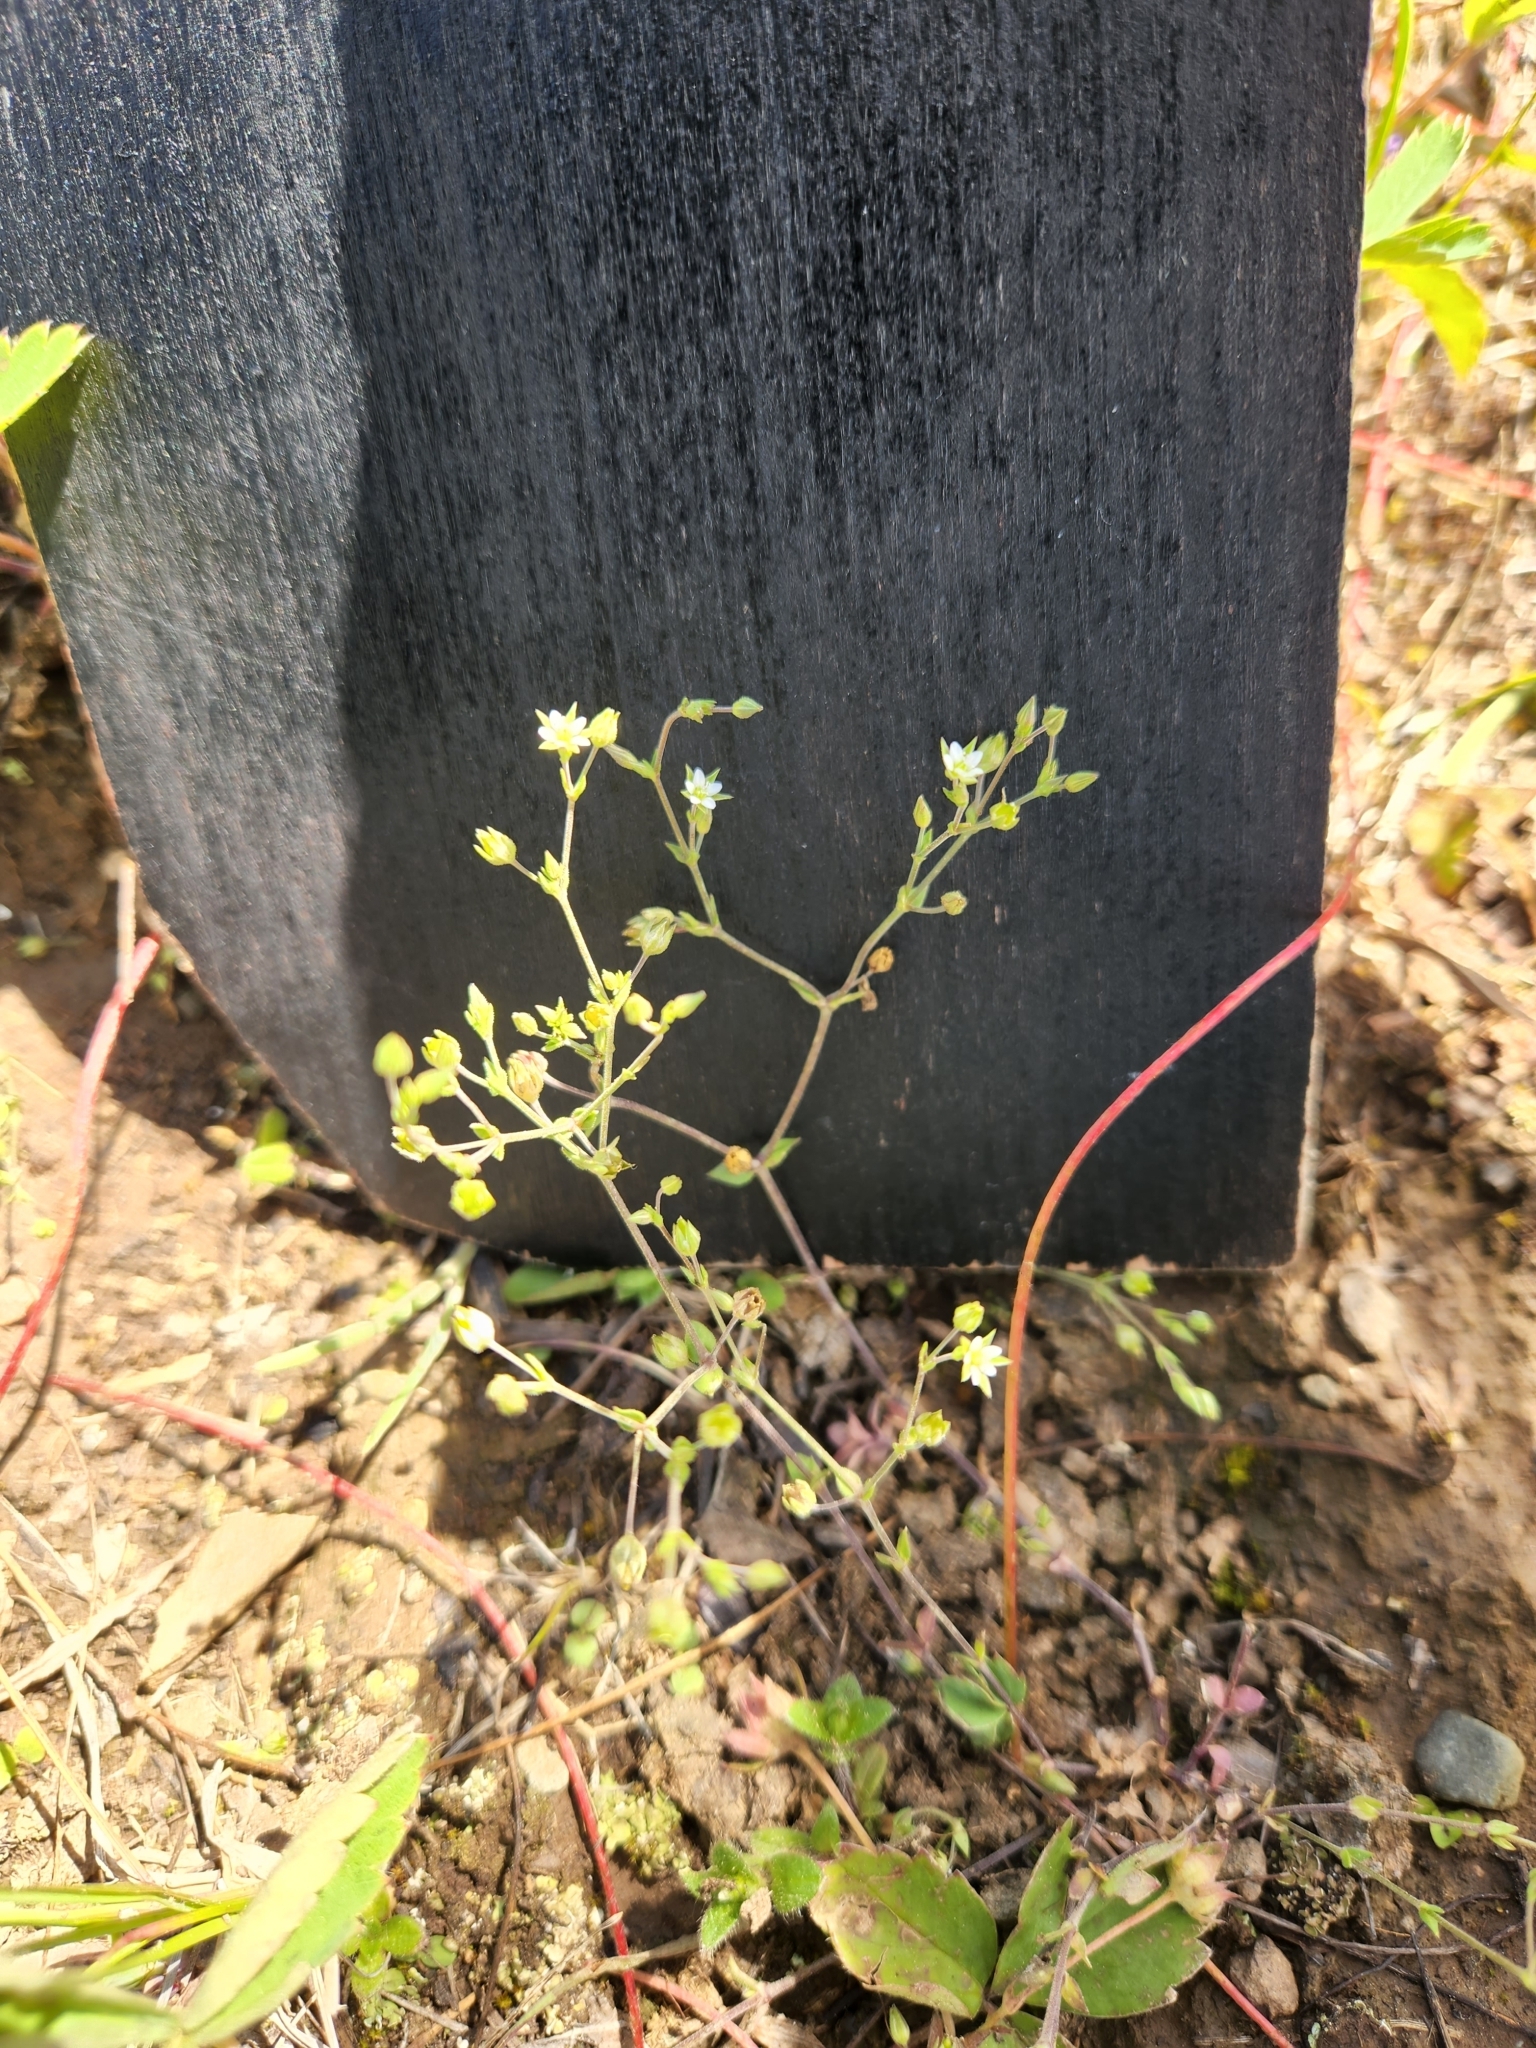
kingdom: Plantae
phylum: Tracheophyta
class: Magnoliopsida
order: Caryophyllales
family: Caryophyllaceae
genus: Arenaria
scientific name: Arenaria serpyllifolia
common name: Thyme-leaved sandwort
